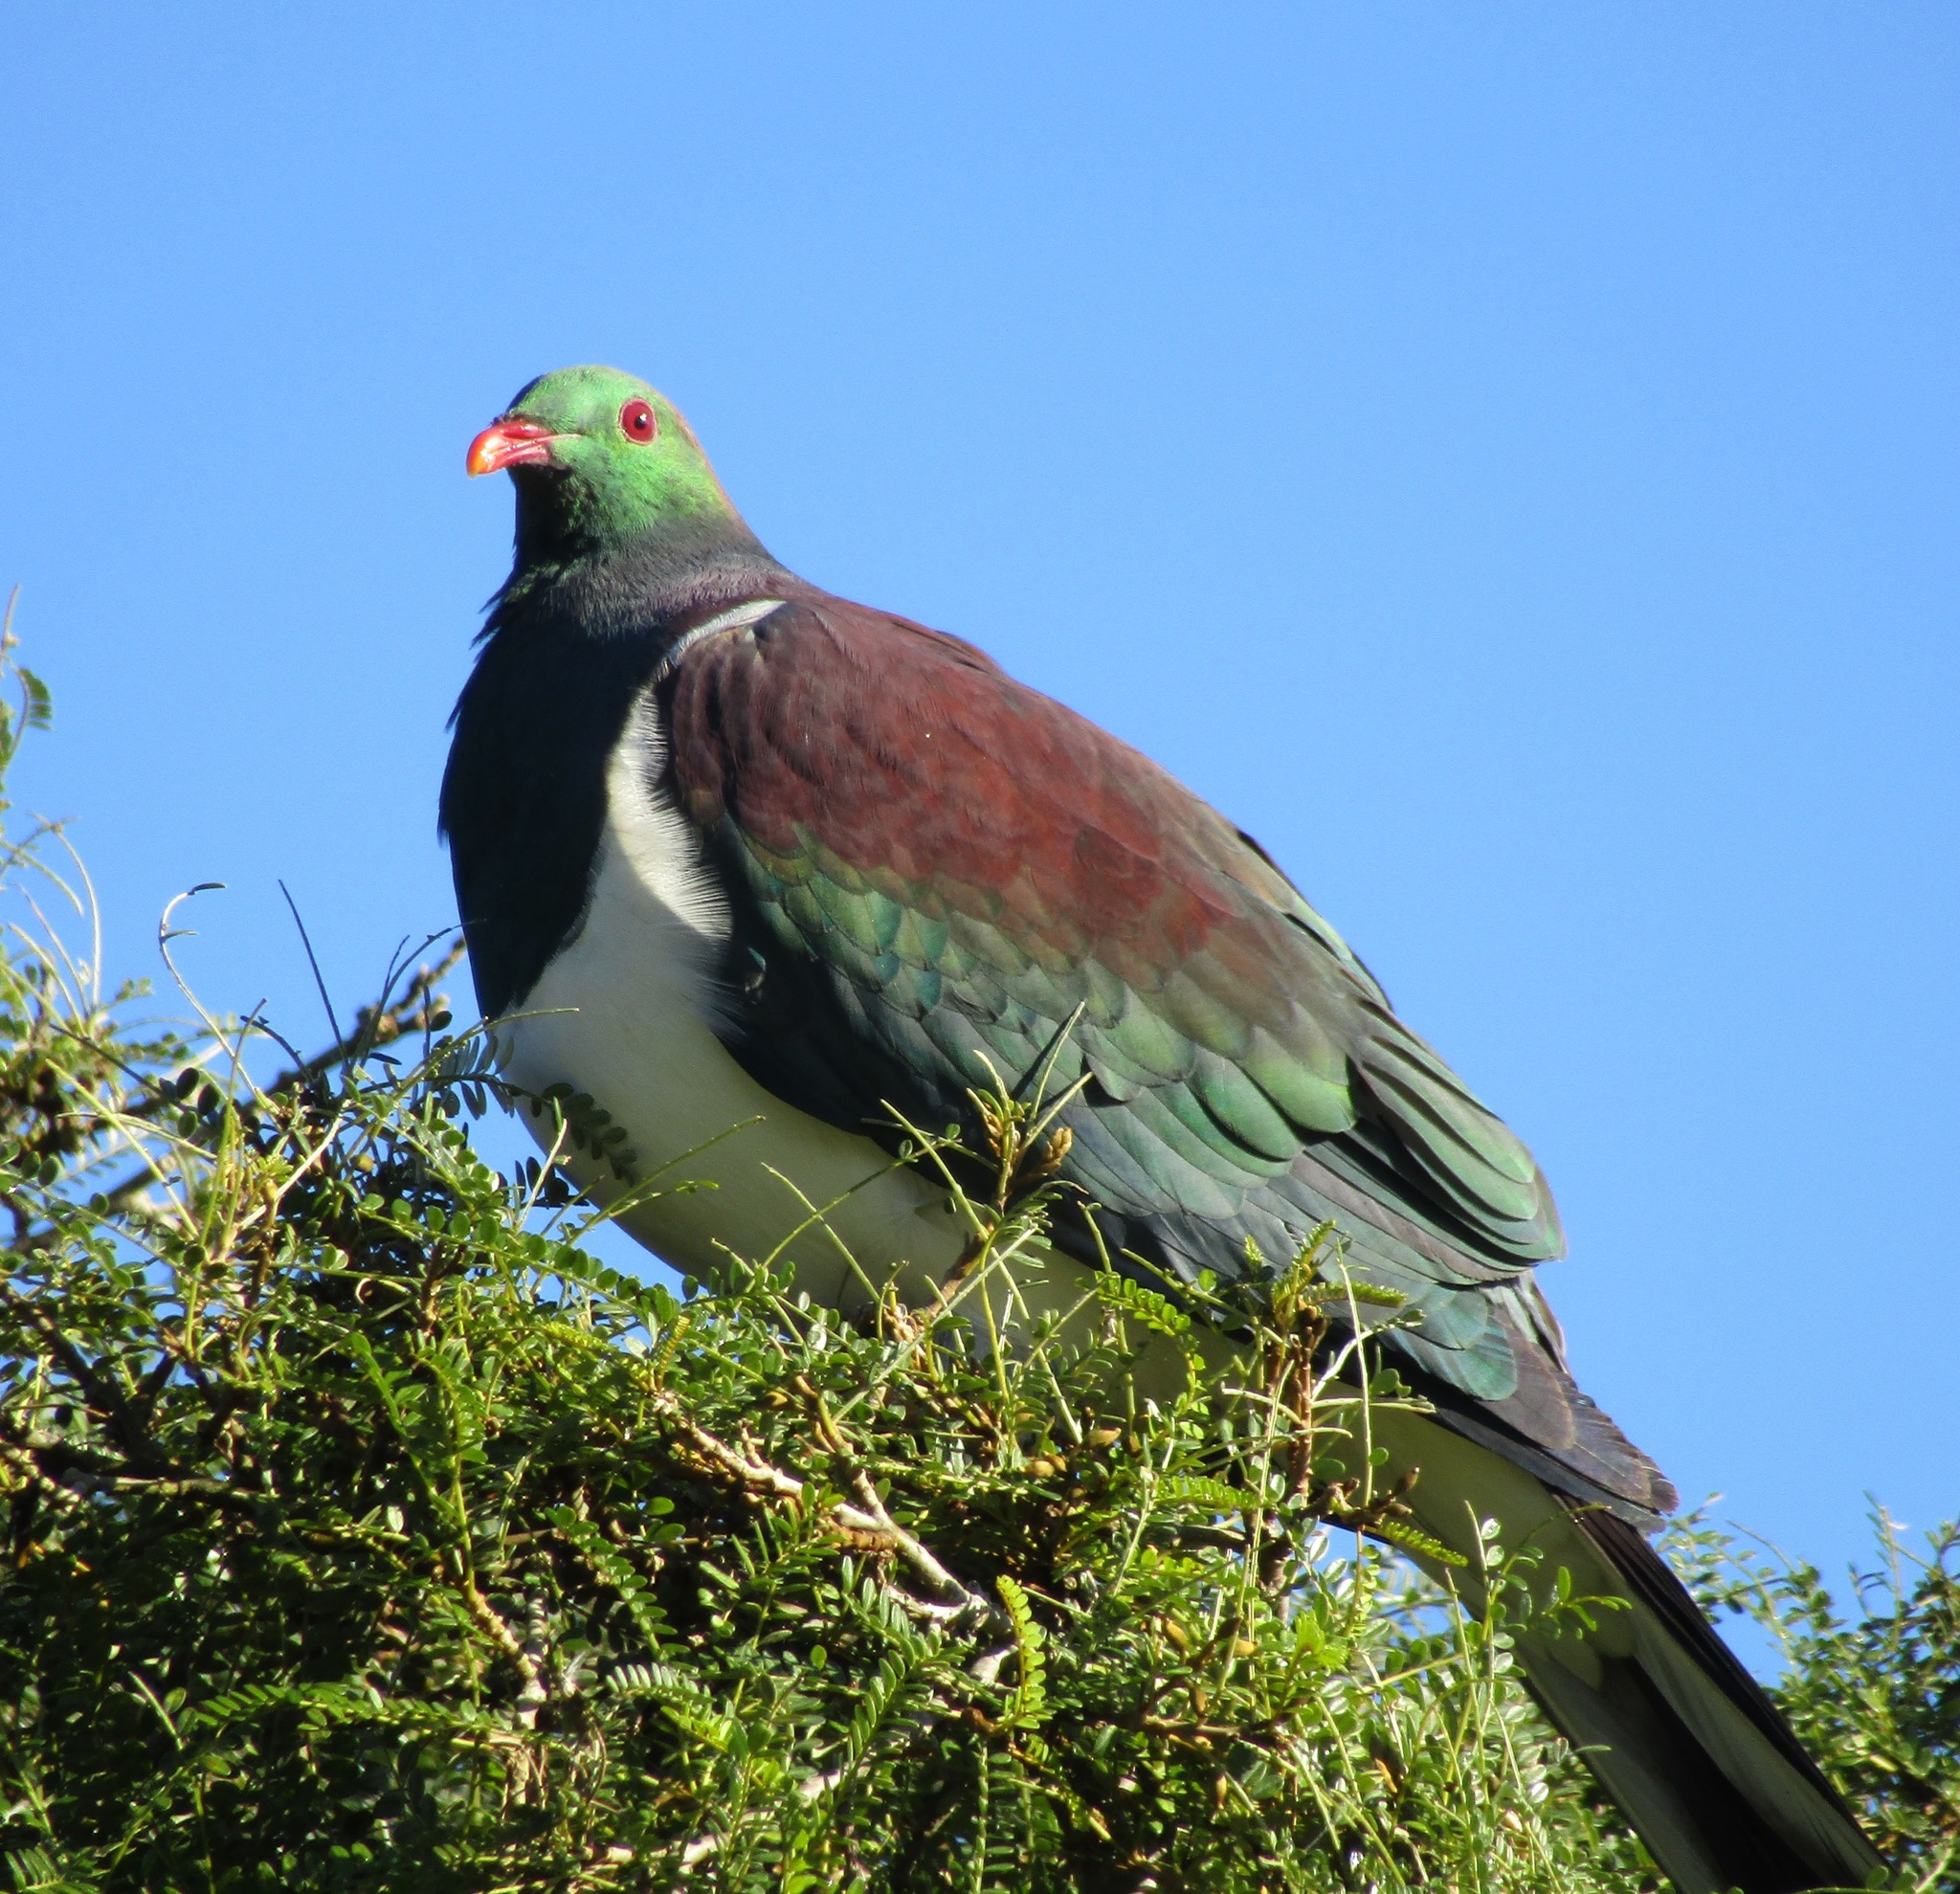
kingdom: Animalia
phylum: Chordata
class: Aves
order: Columbiformes
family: Columbidae
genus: Hemiphaga
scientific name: Hemiphaga novaeseelandiae
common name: New zealand pigeon
